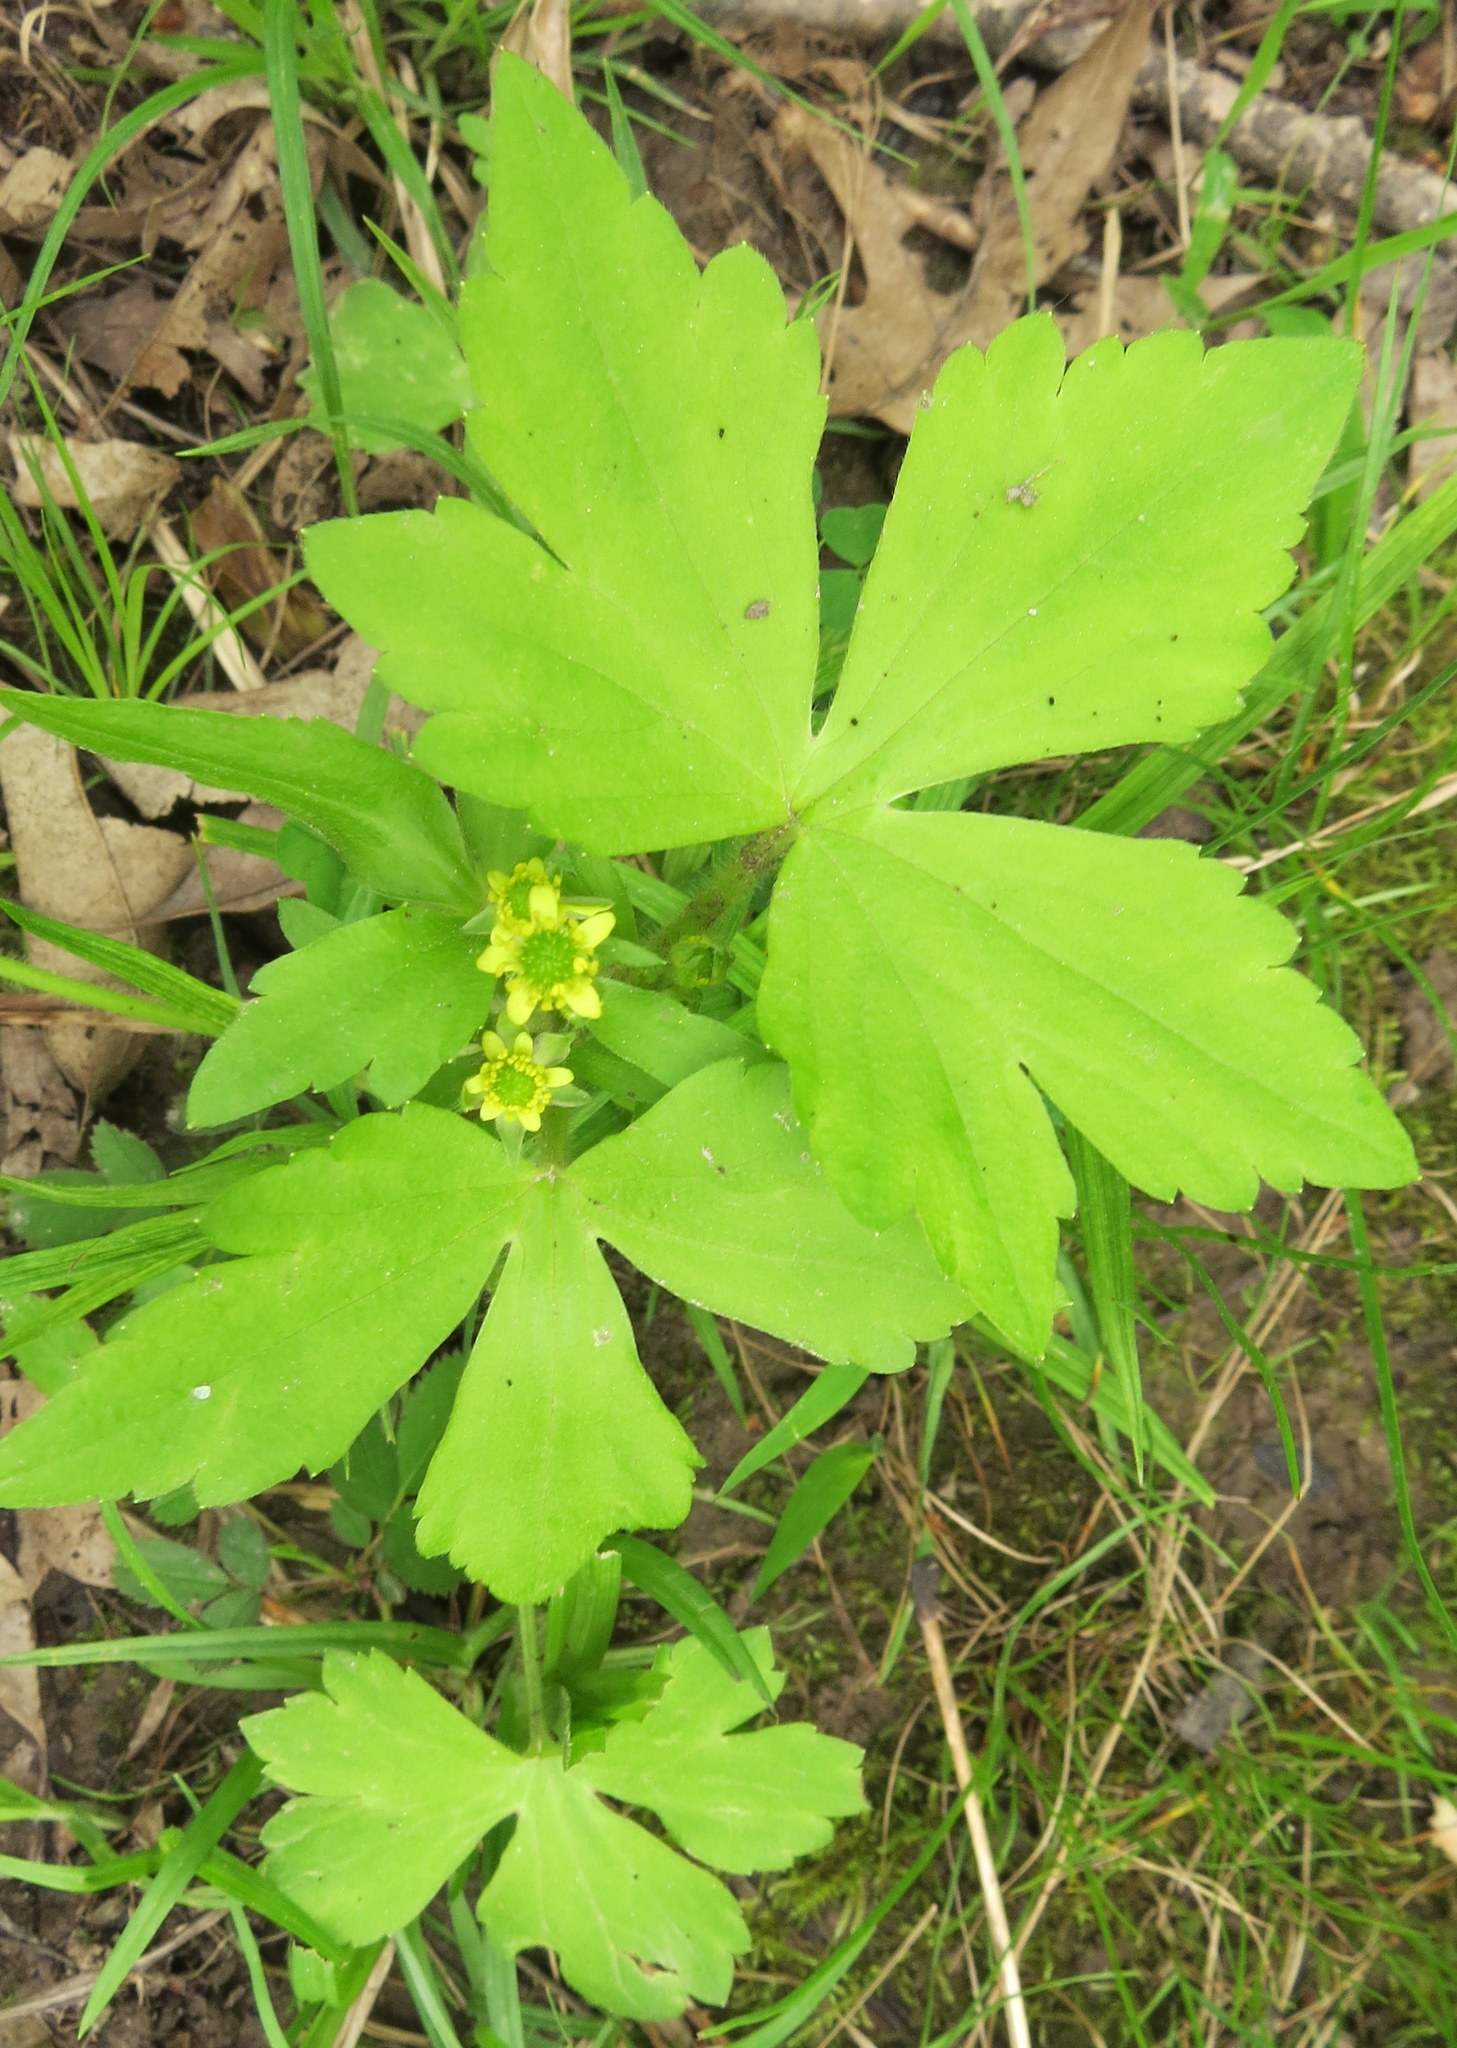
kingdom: Plantae
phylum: Tracheophyta
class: Magnoliopsida
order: Ranunculales
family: Ranunculaceae
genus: Ranunculus
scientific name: Ranunculus recurvatus
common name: Blisterwort
